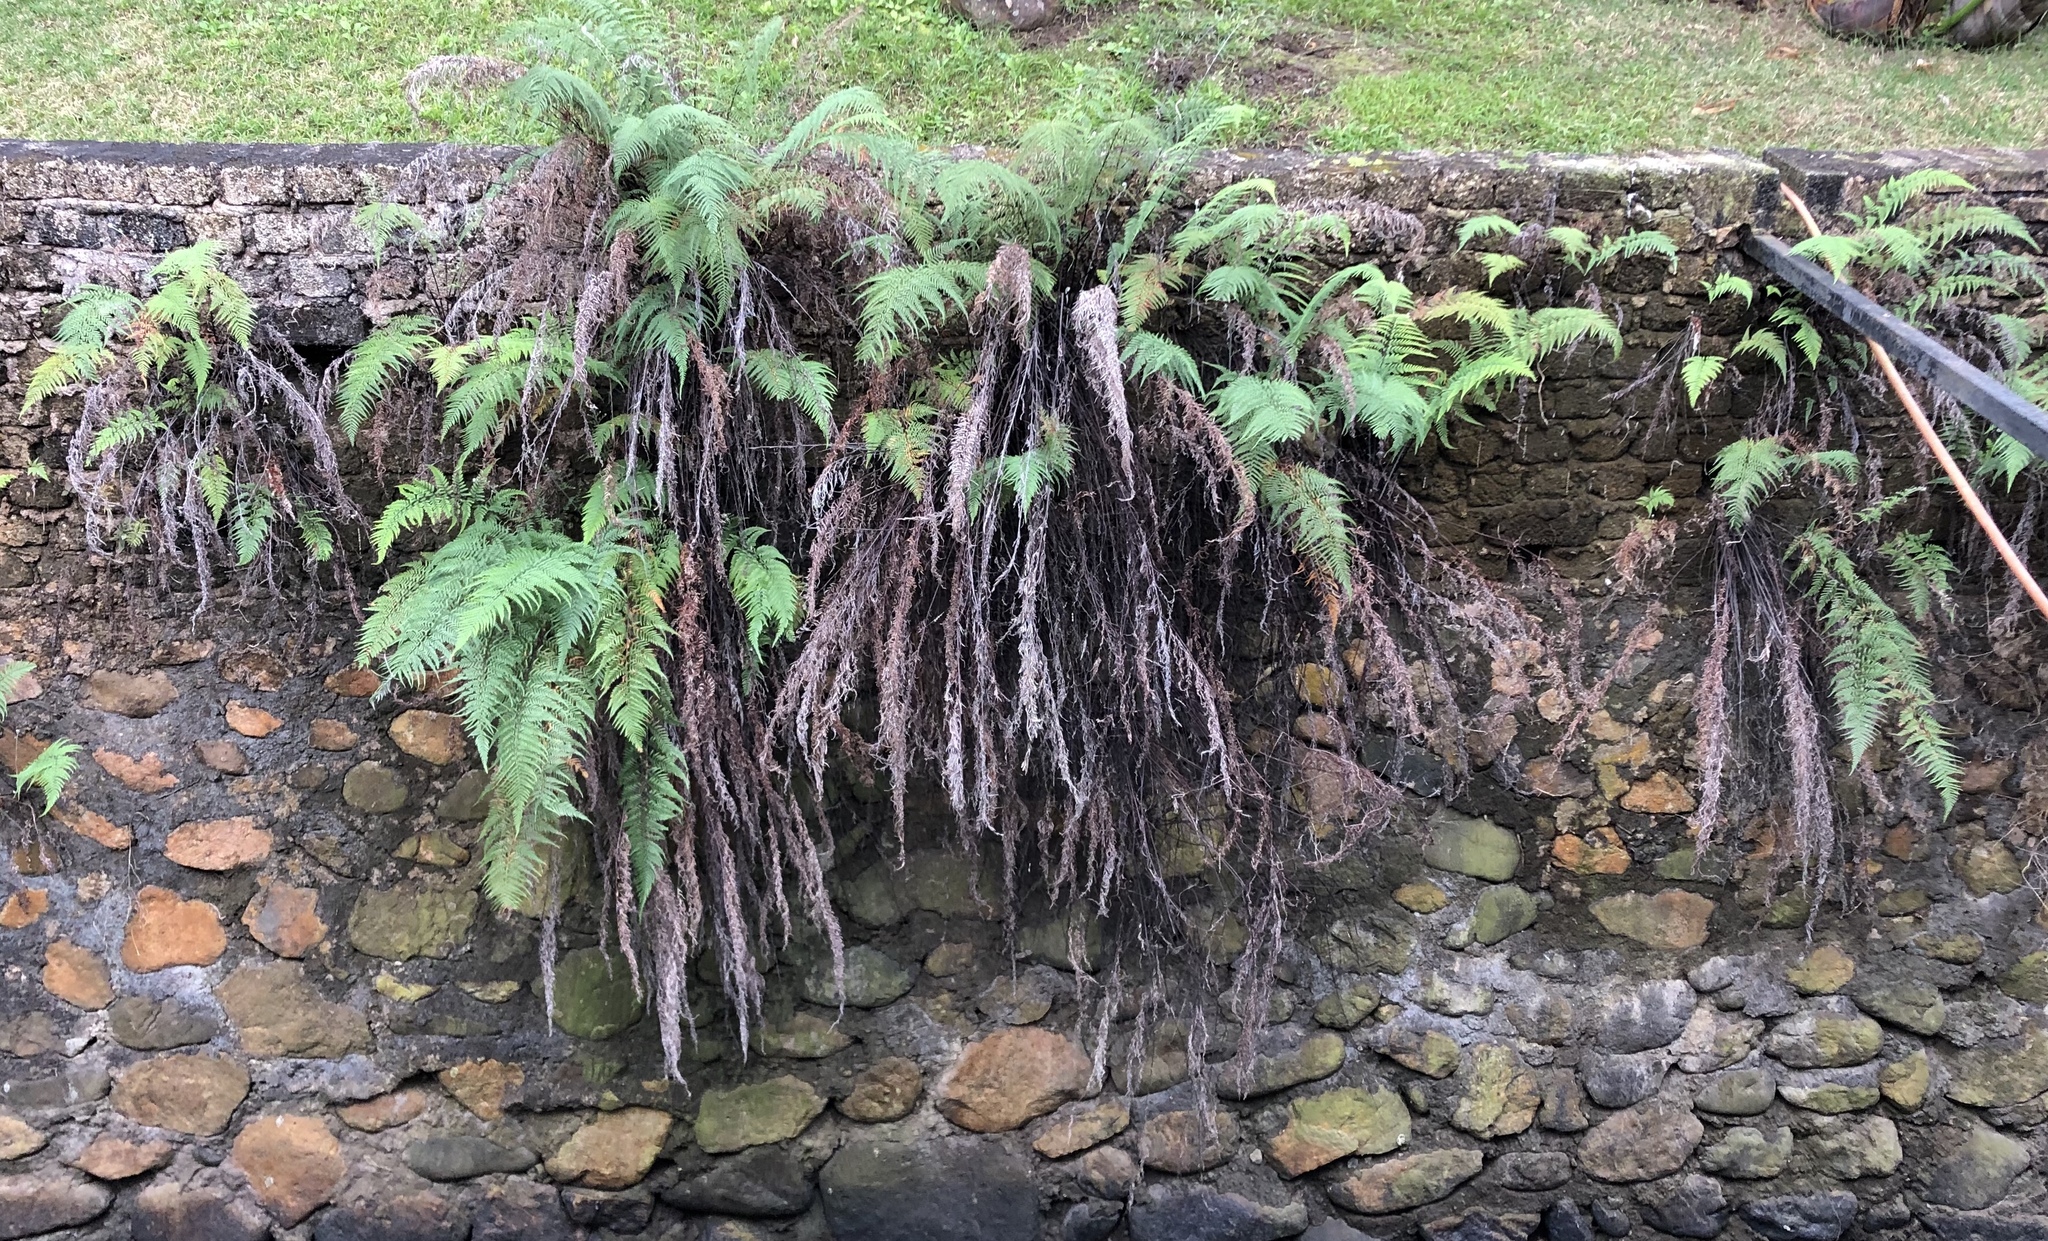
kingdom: Plantae
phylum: Tracheophyta
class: Polypodiopsida
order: Polypodiales
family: Pteridaceae
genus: Pityrogramma
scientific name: Pityrogramma calomelanos
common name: Dixie silverback fern
